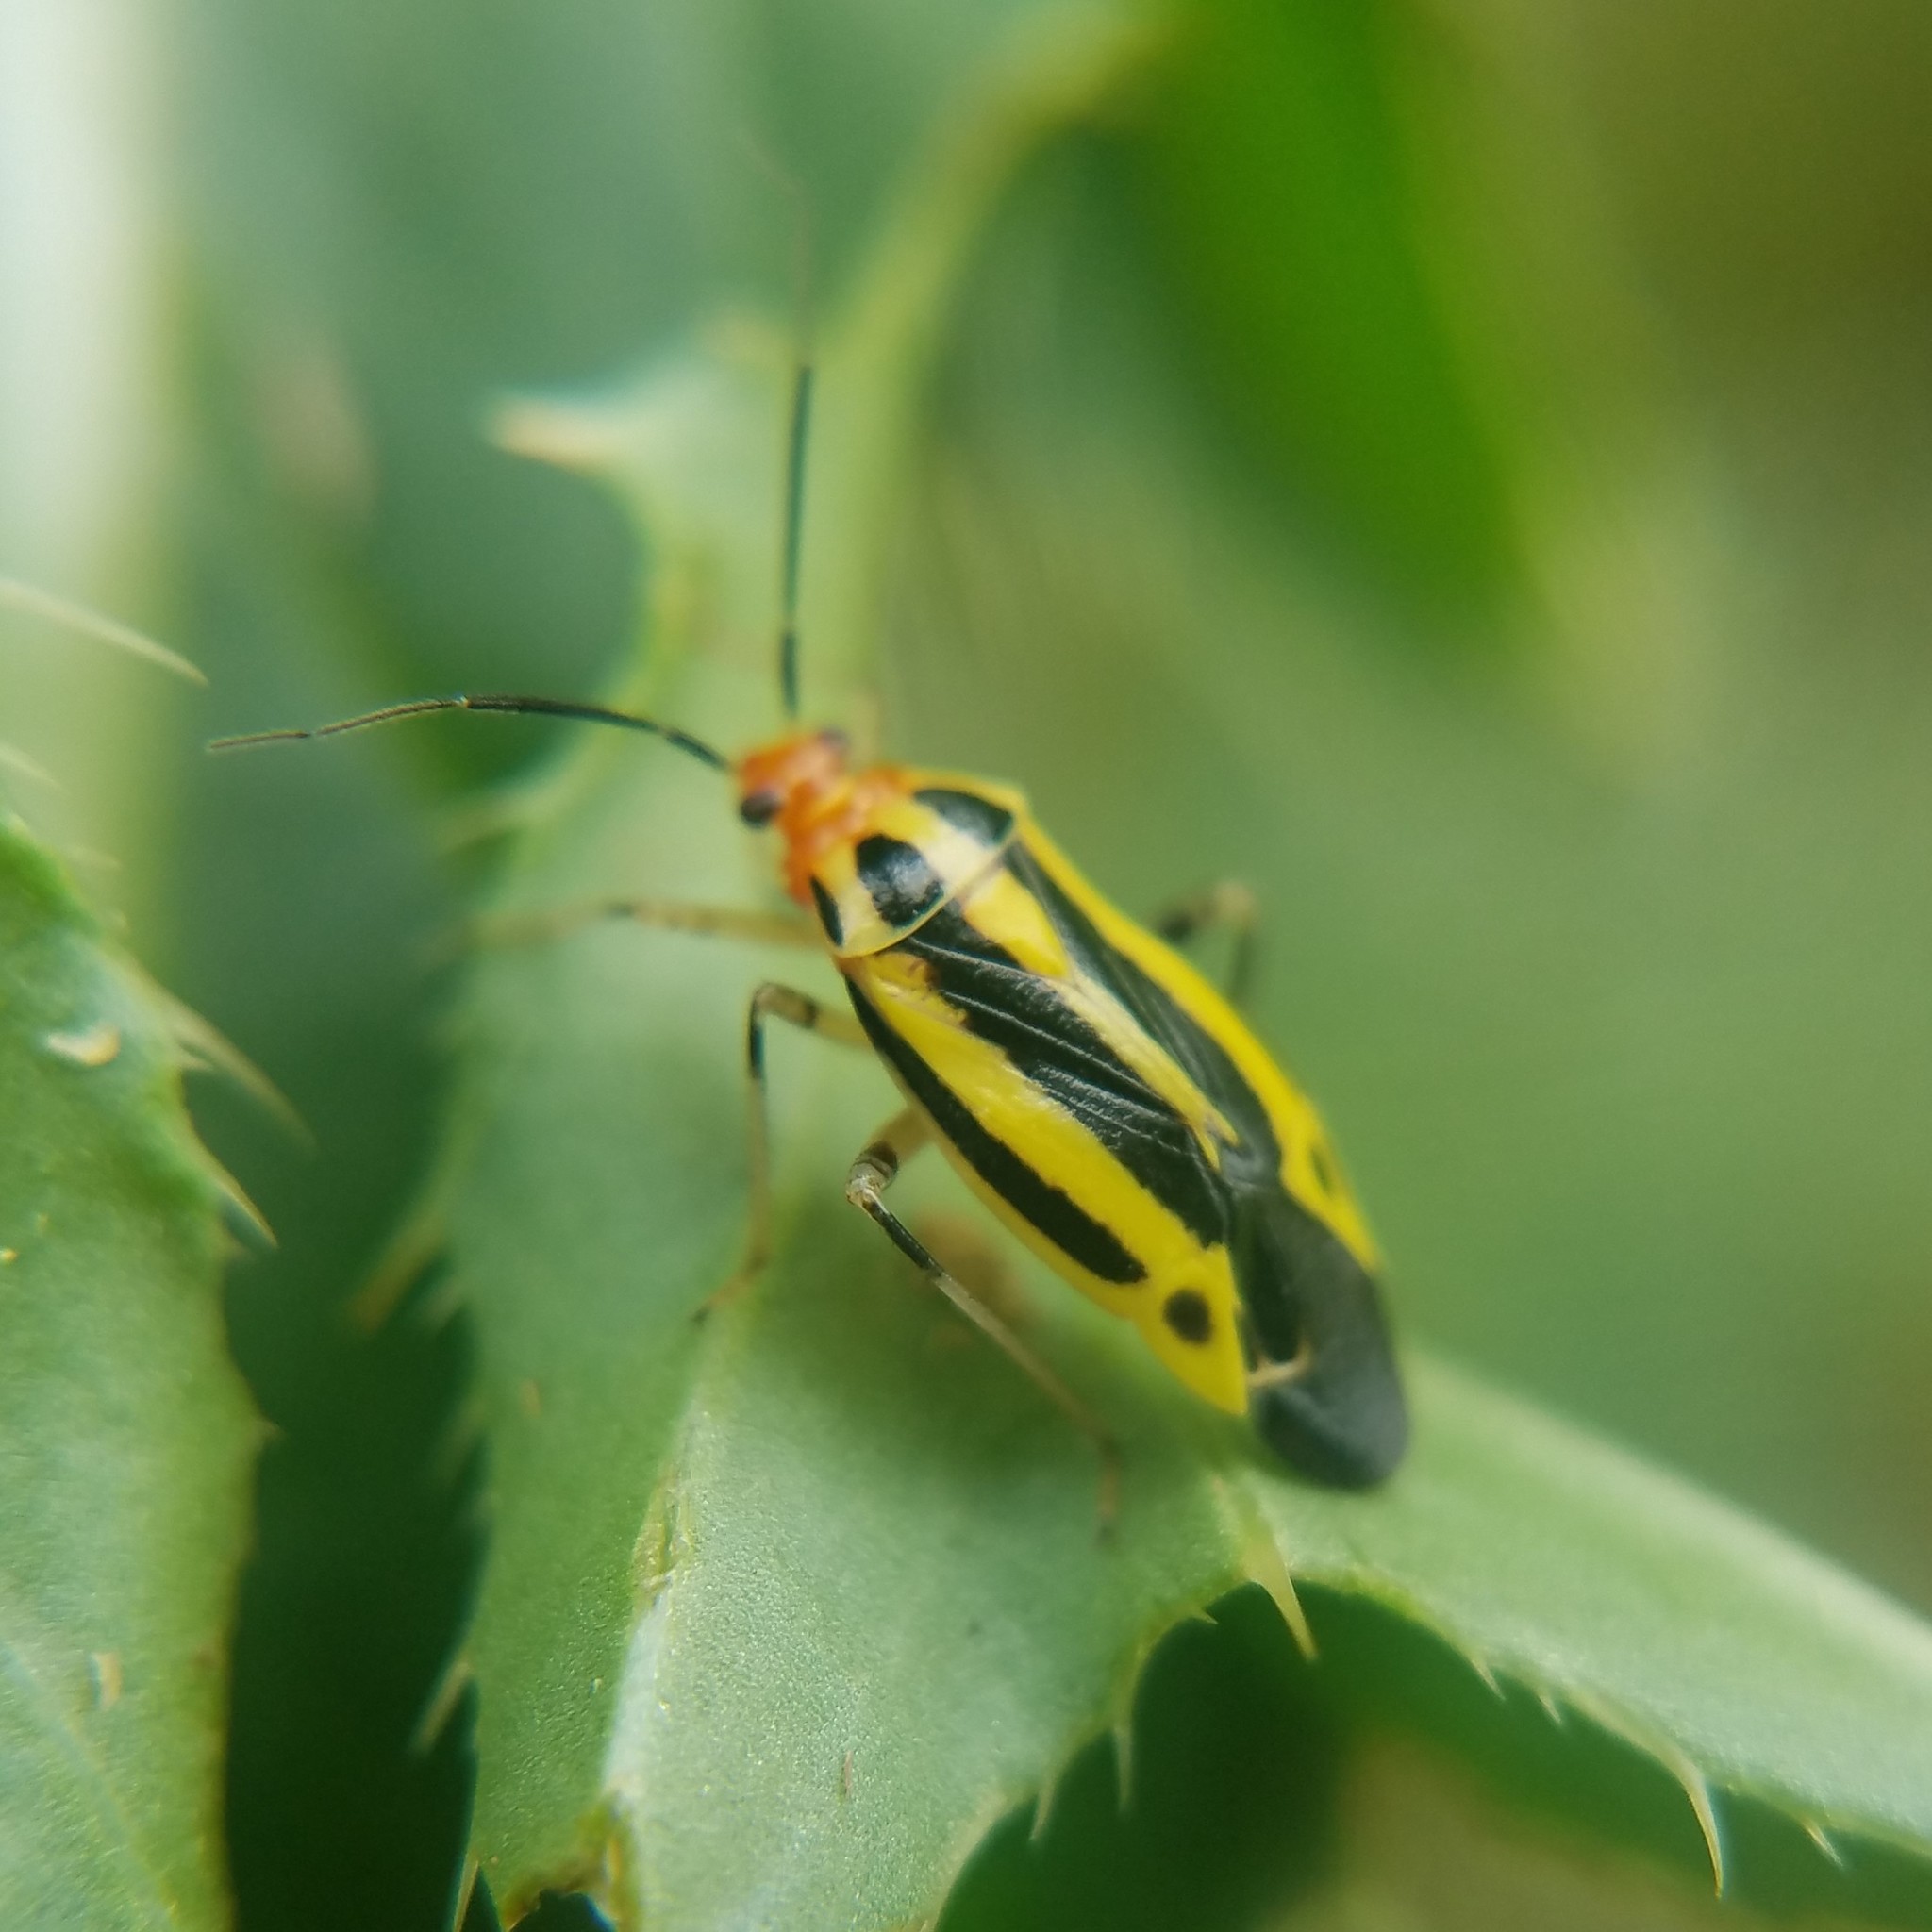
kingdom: Animalia
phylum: Arthropoda
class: Insecta
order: Hemiptera
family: Miridae
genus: Poecilocapsus
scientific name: Poecilocapsus lineatus
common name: Four-lined plant bug
